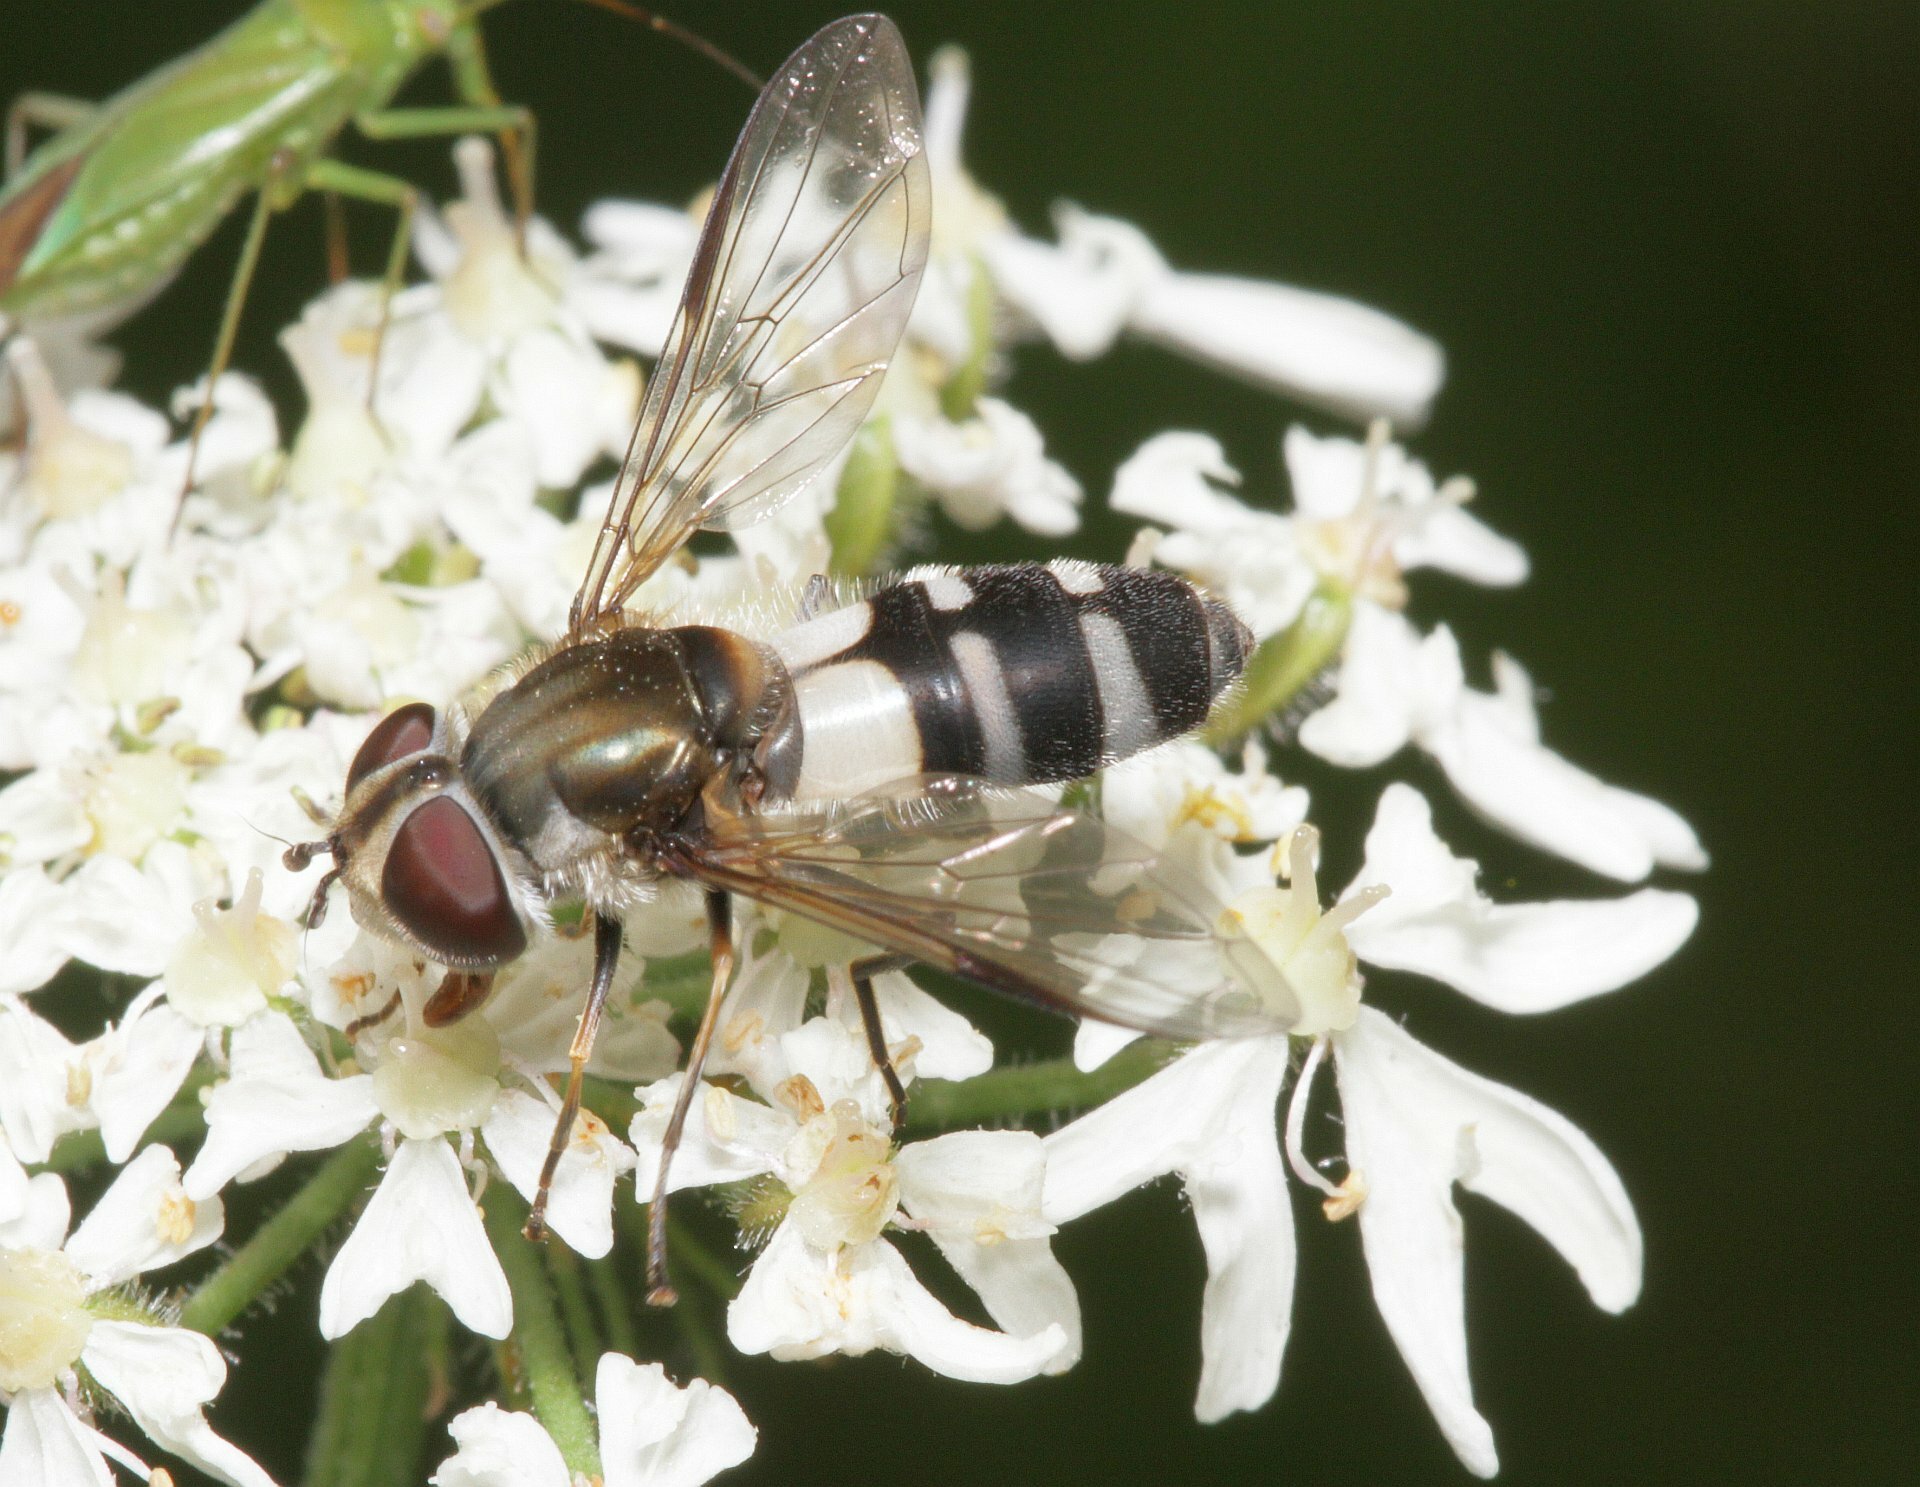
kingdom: Animalia
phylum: Arthropoda
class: Insecta
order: Diptera
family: Syrphidae
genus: Leucozona
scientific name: Leucozona laternaria
